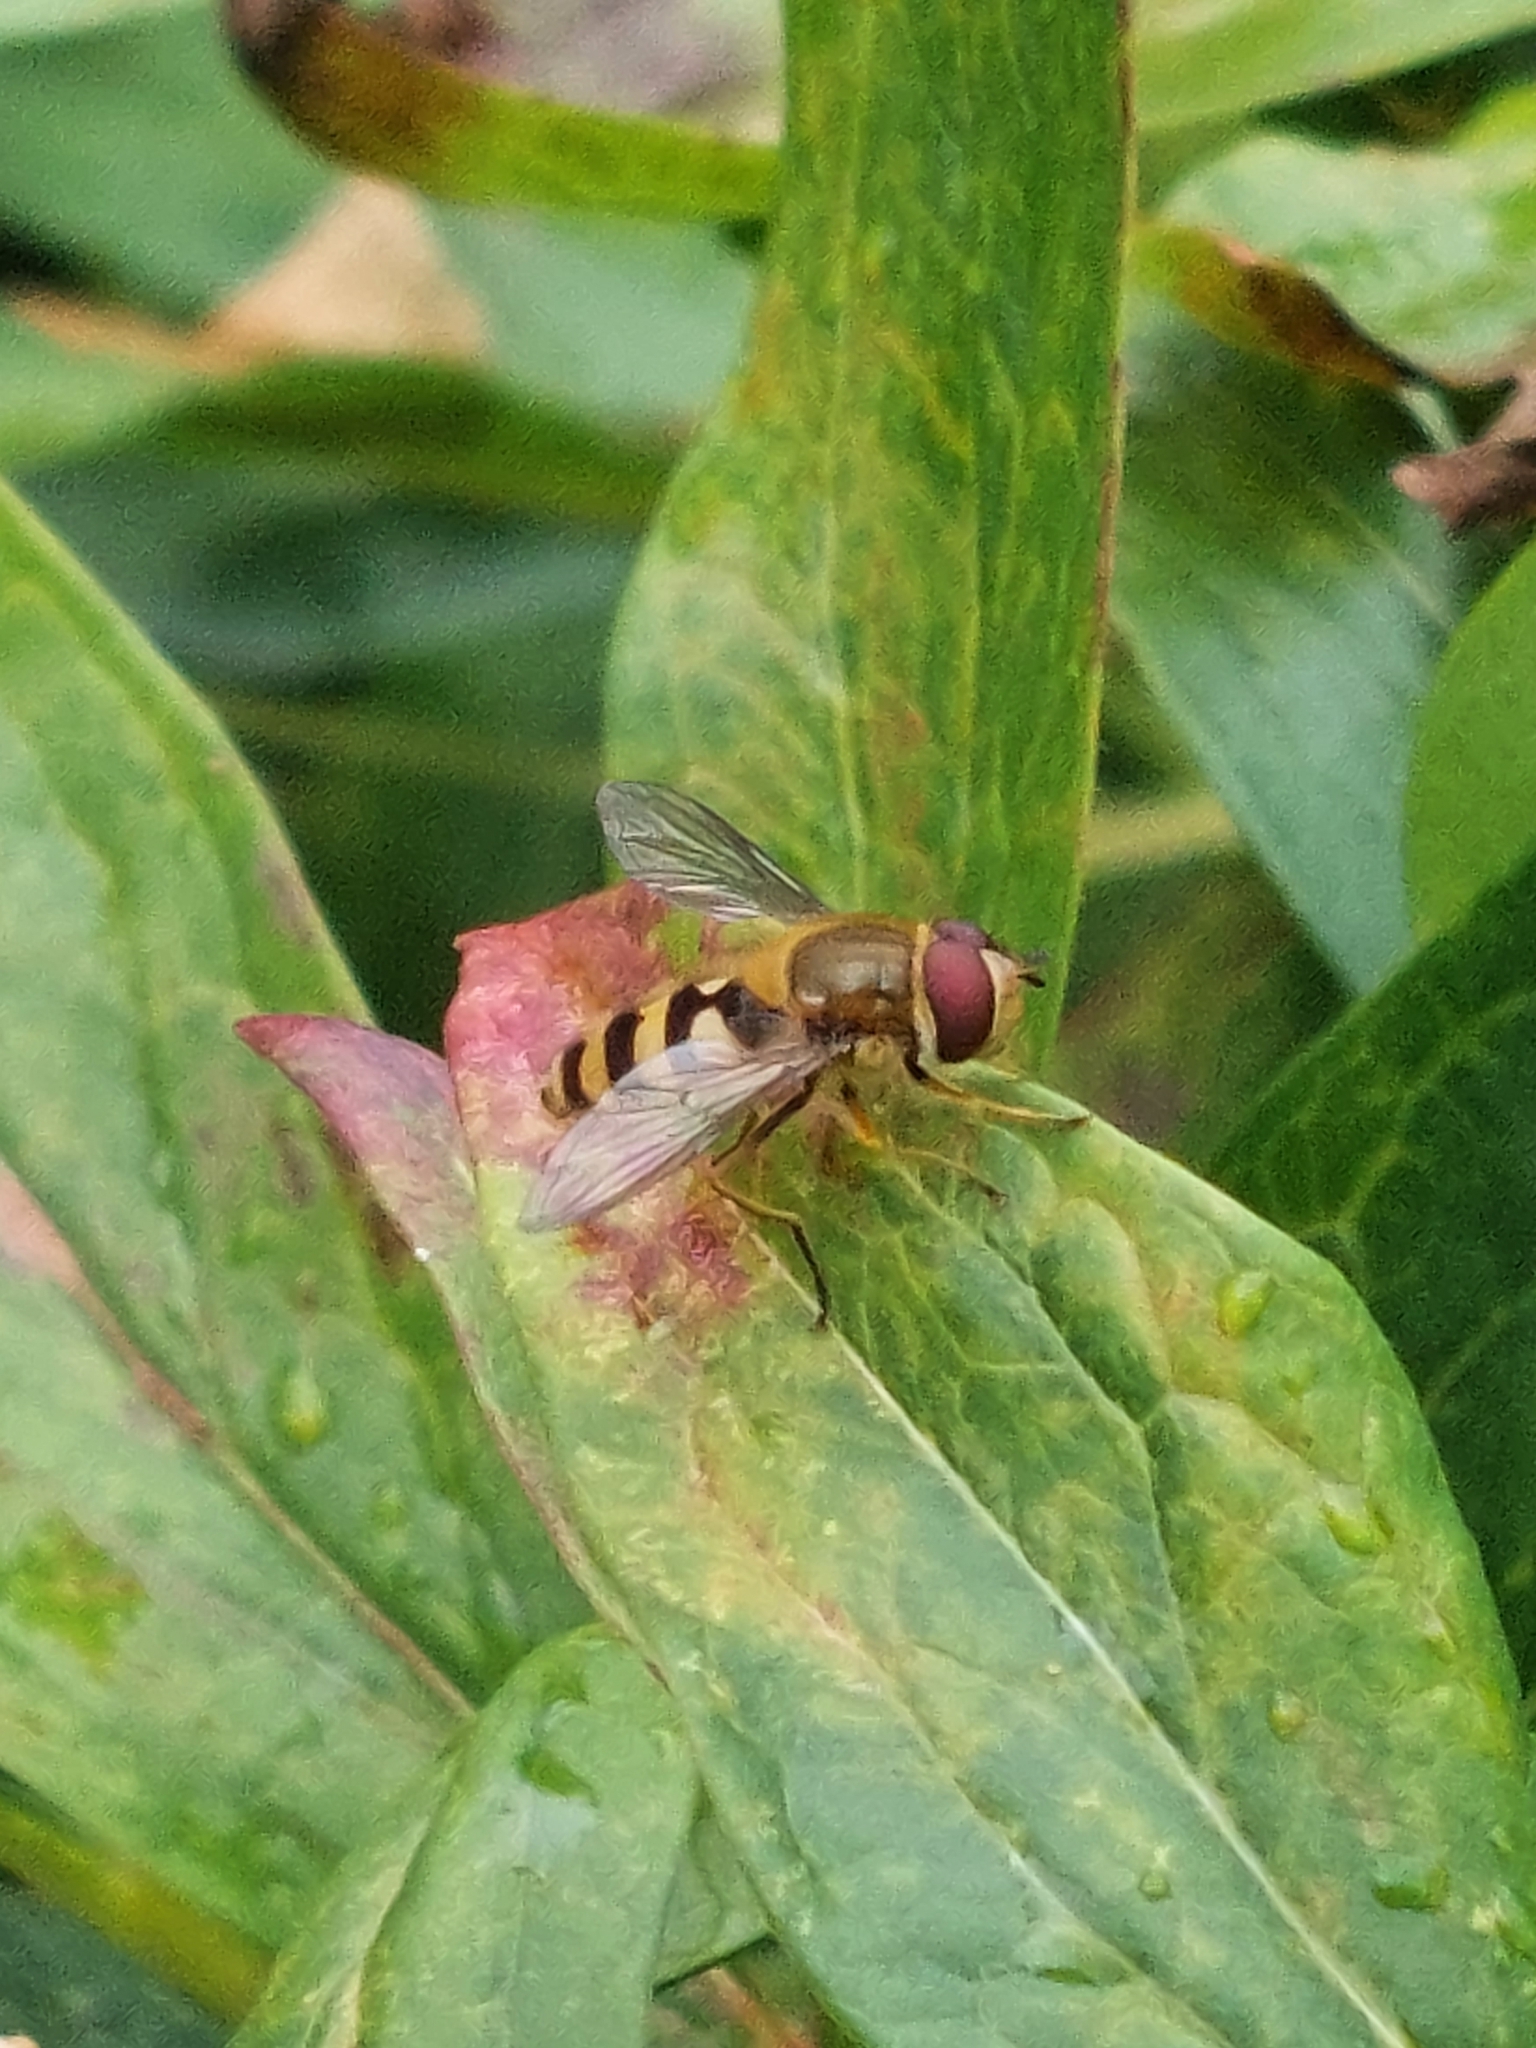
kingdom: Animalia
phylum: Arthropoda
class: Insecta
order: Diptera
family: Syrphidae
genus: Syrphus
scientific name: Syrphus
